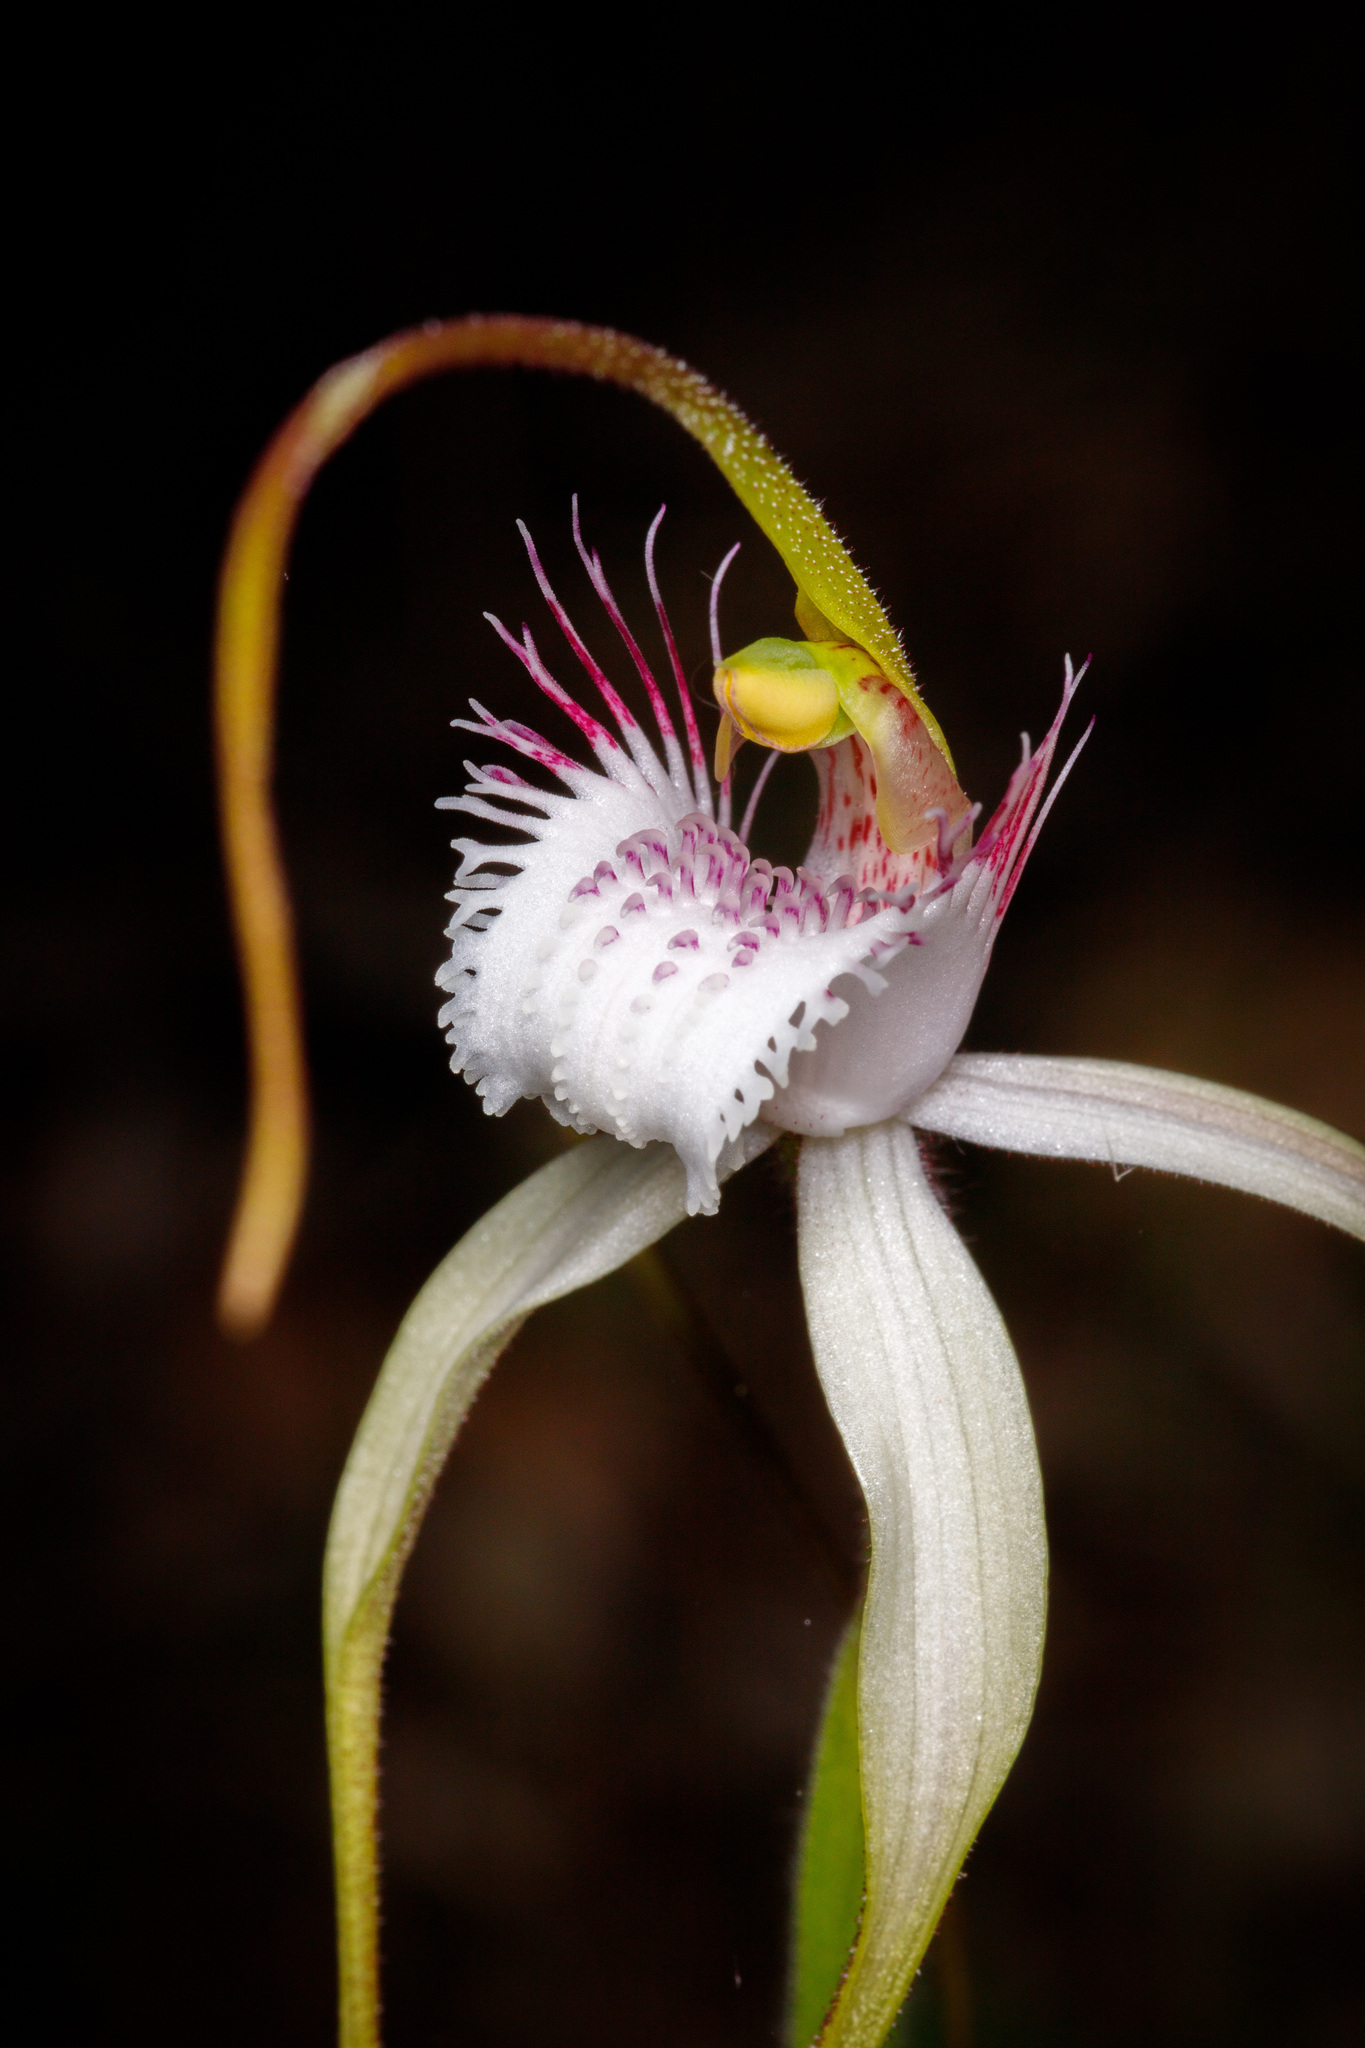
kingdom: Plantae
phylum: Tracheophyta
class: Liliopsida
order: Asparagales
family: Orchidaceae
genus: Caladenia
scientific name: Caladenia speciosa
